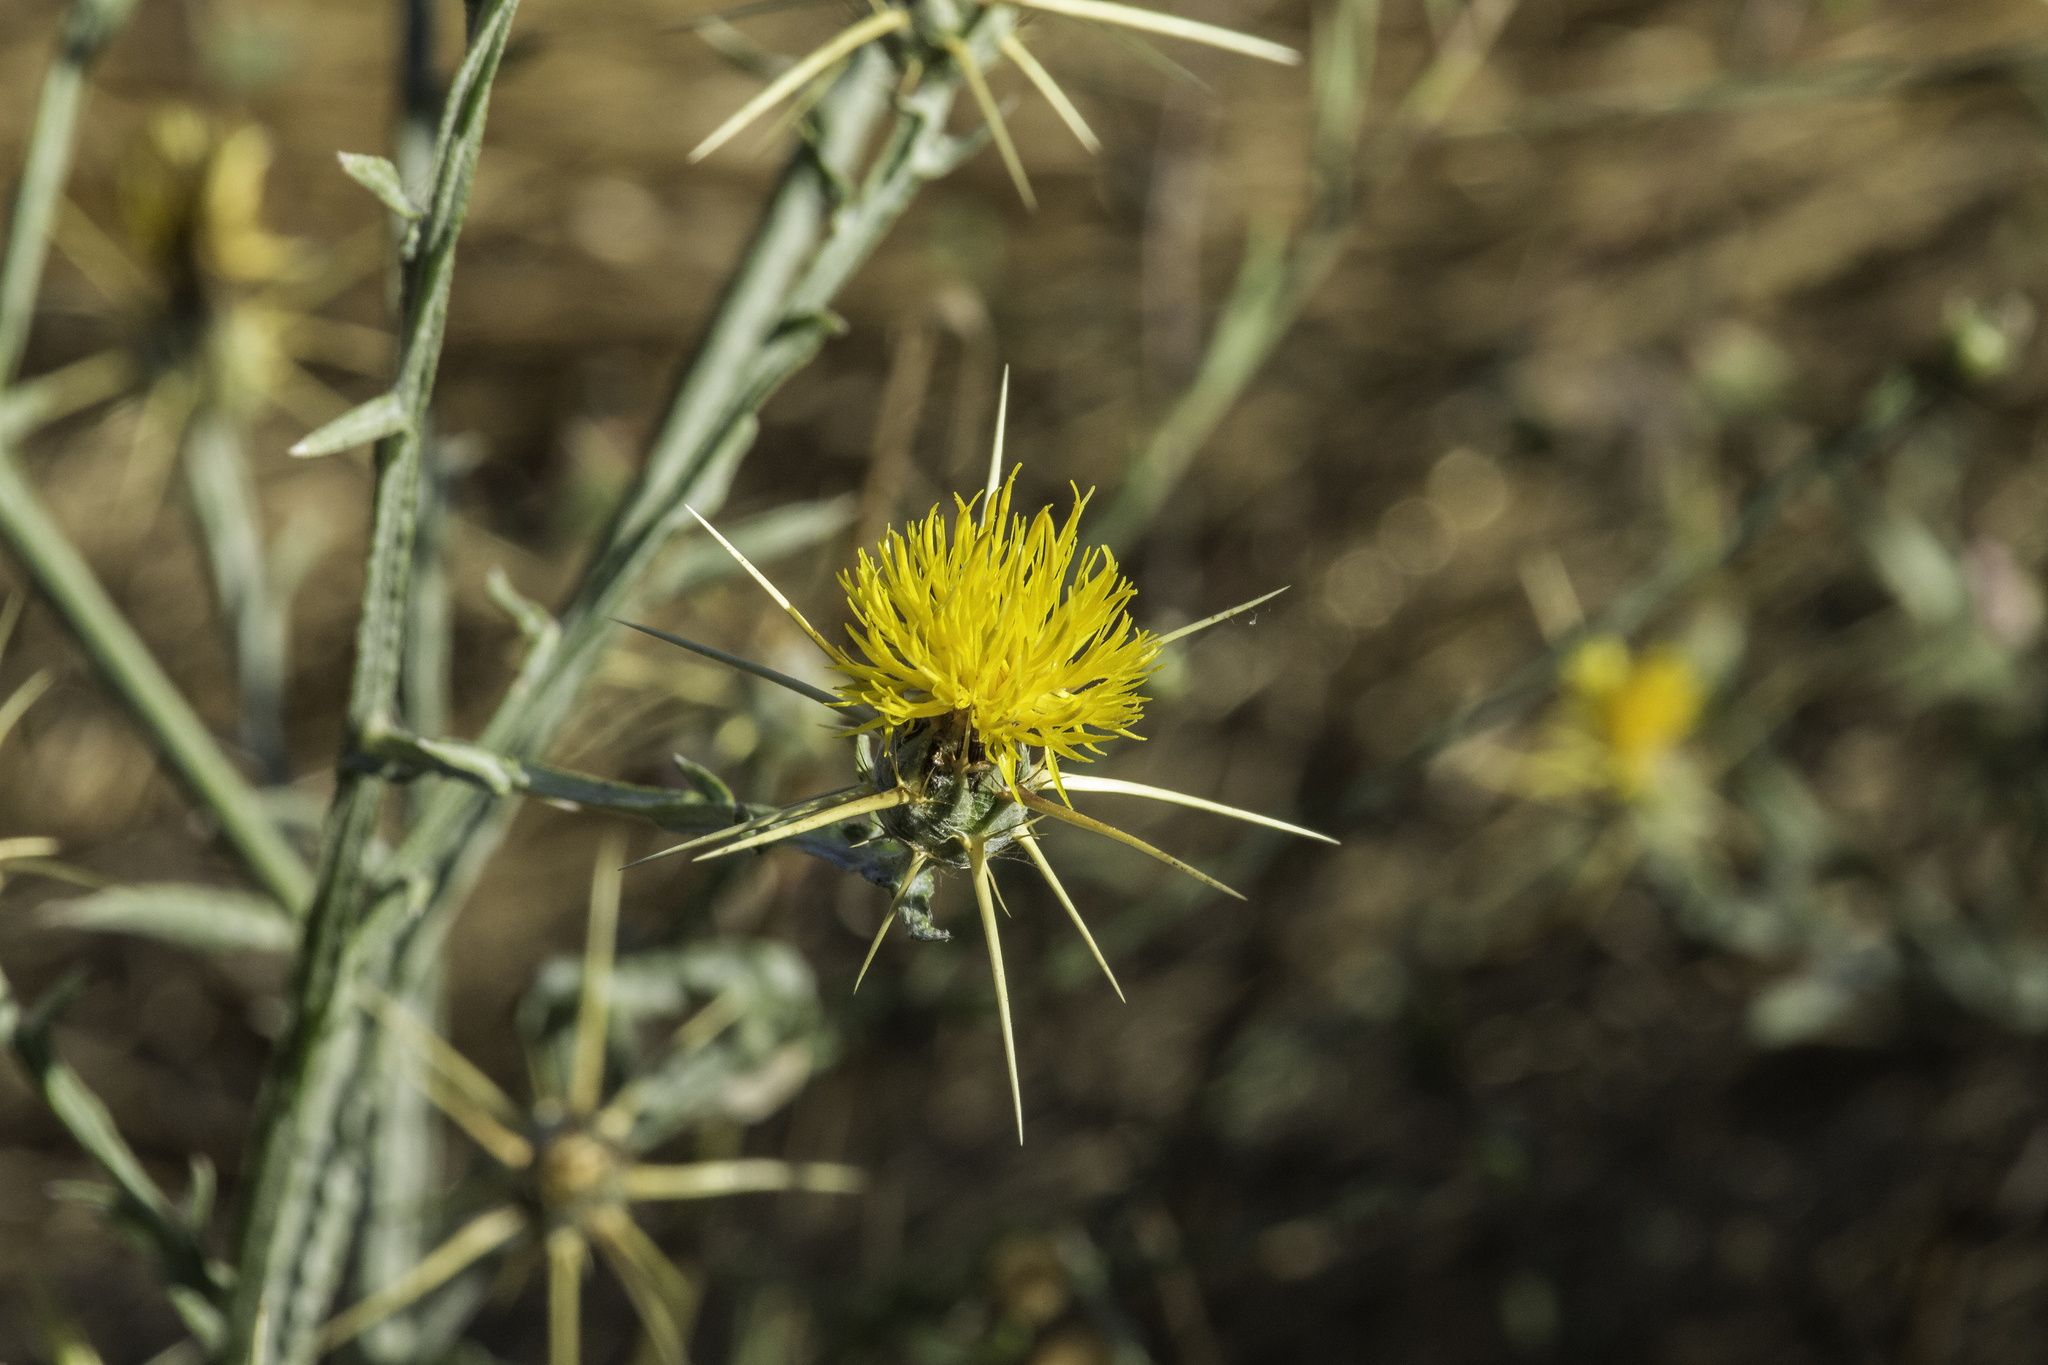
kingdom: Plantae
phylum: Tracheophyta
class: Magnoliopsida
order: Asterales
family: Asteraceae
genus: Centaurea
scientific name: Centaurea solstitialis
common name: Yellow star-thistle
